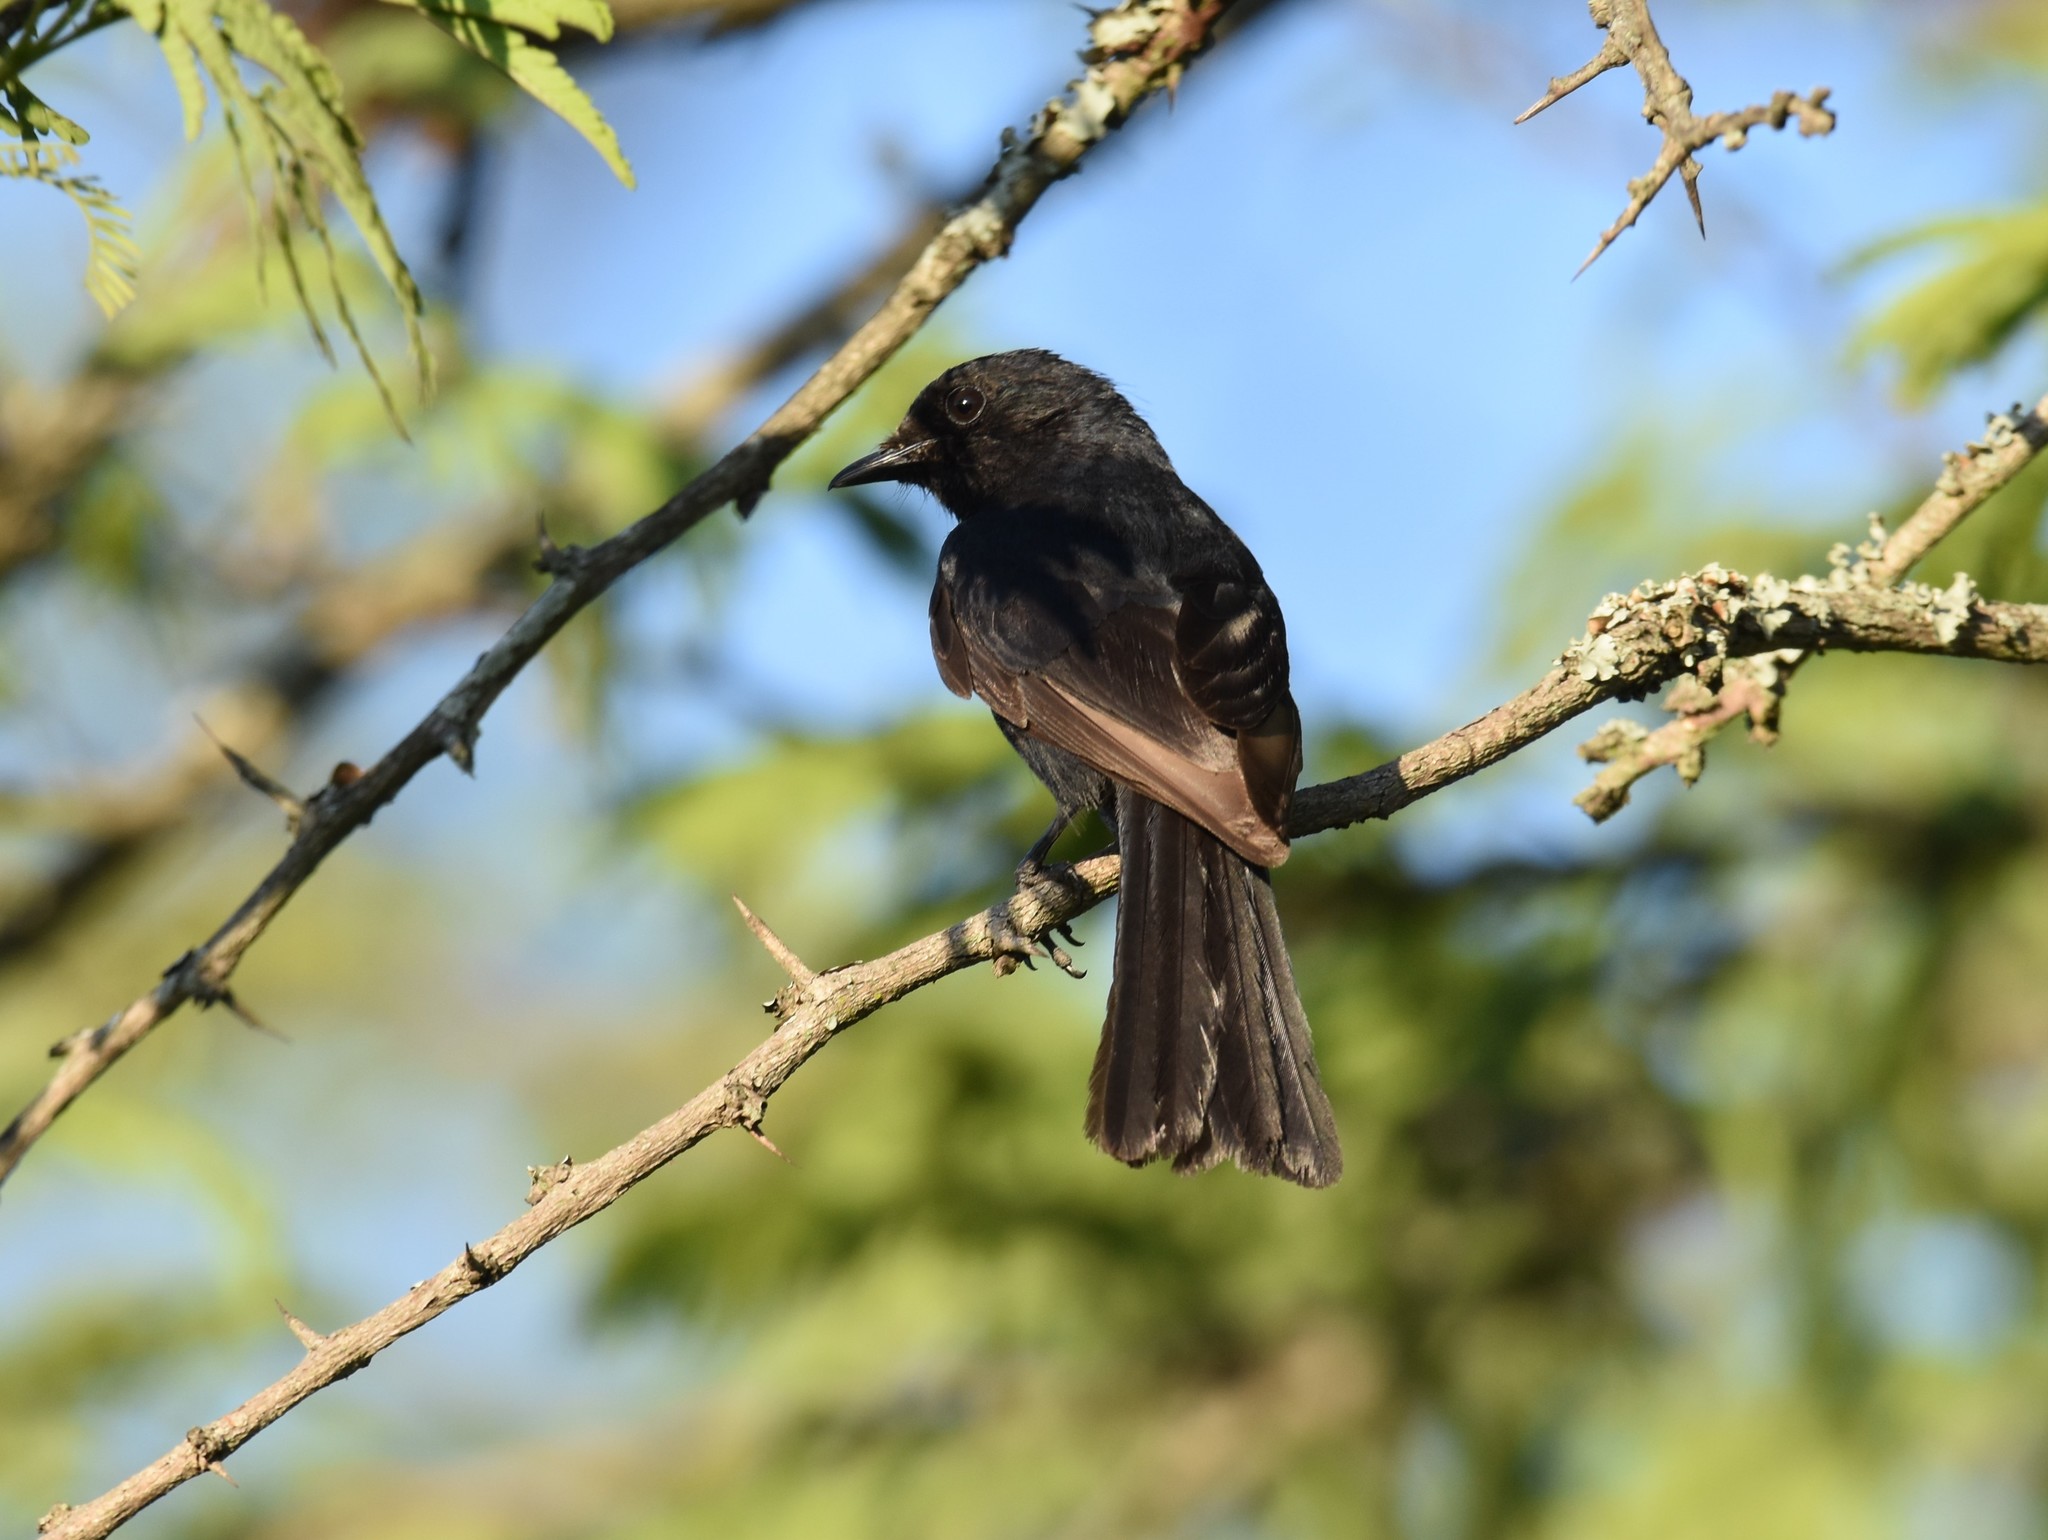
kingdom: Animalia
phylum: Chordata
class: Aves
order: Passeriformes
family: Muscicapidae
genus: Melaenornis
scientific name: Melaenornis pammelaina
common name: Southern black flycatcher
